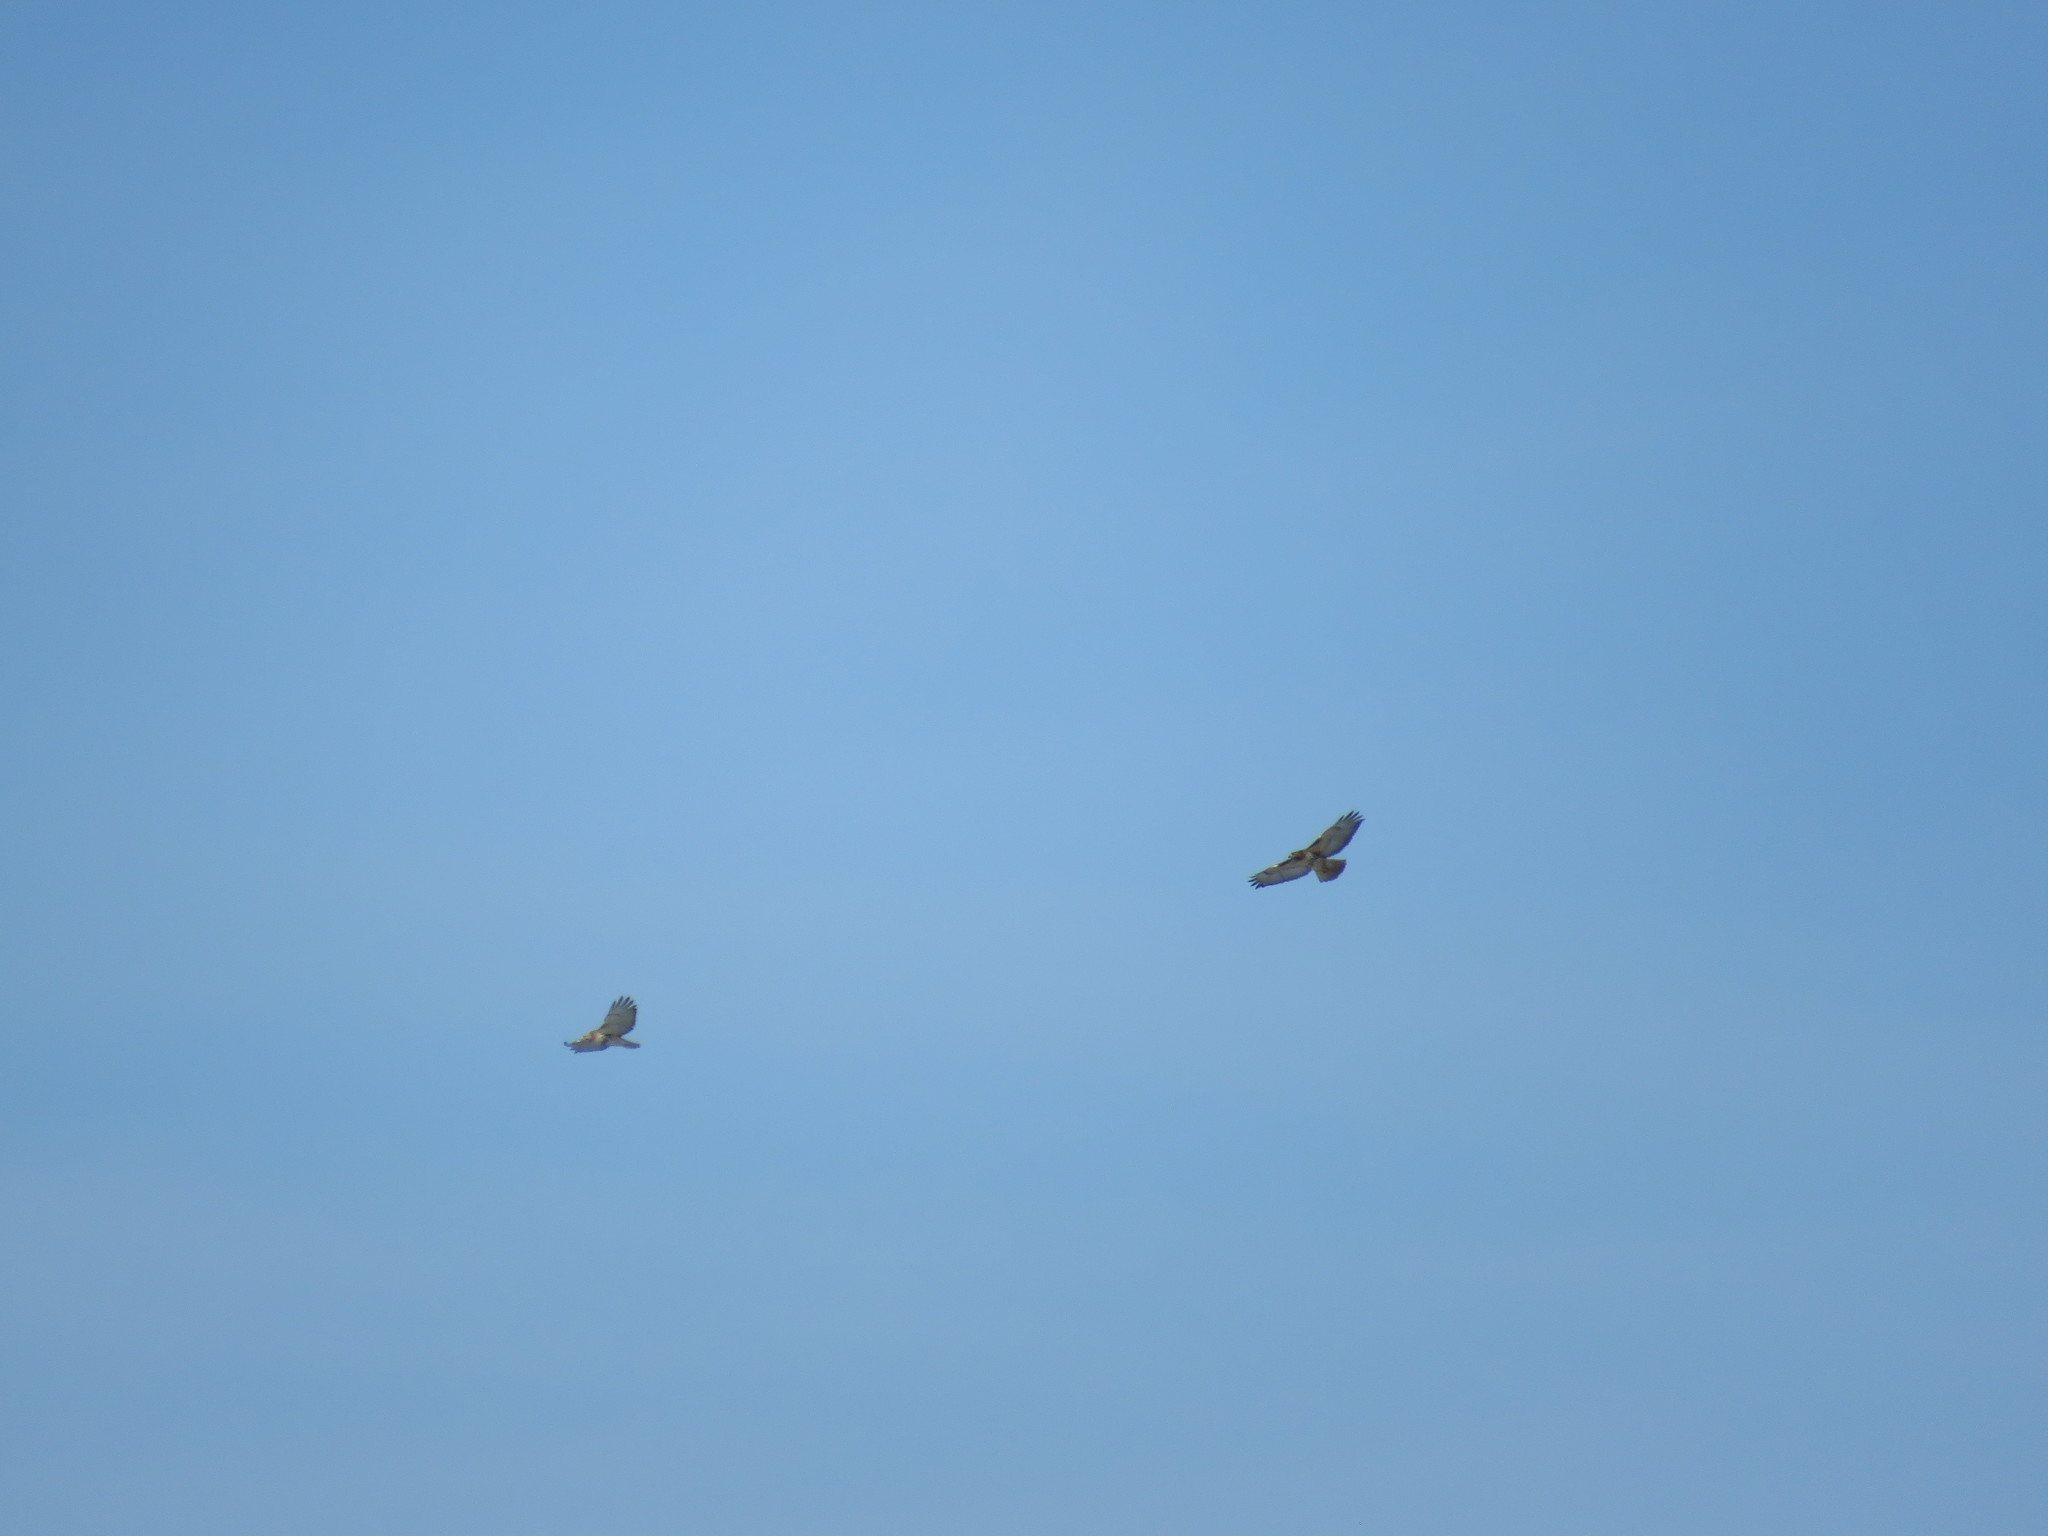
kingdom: Animalia
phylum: Chordata
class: Aves
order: Accipitriformes
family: Accipitridae
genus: Buteo
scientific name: Buteo jamaicensis
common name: Red-tailed hawk
